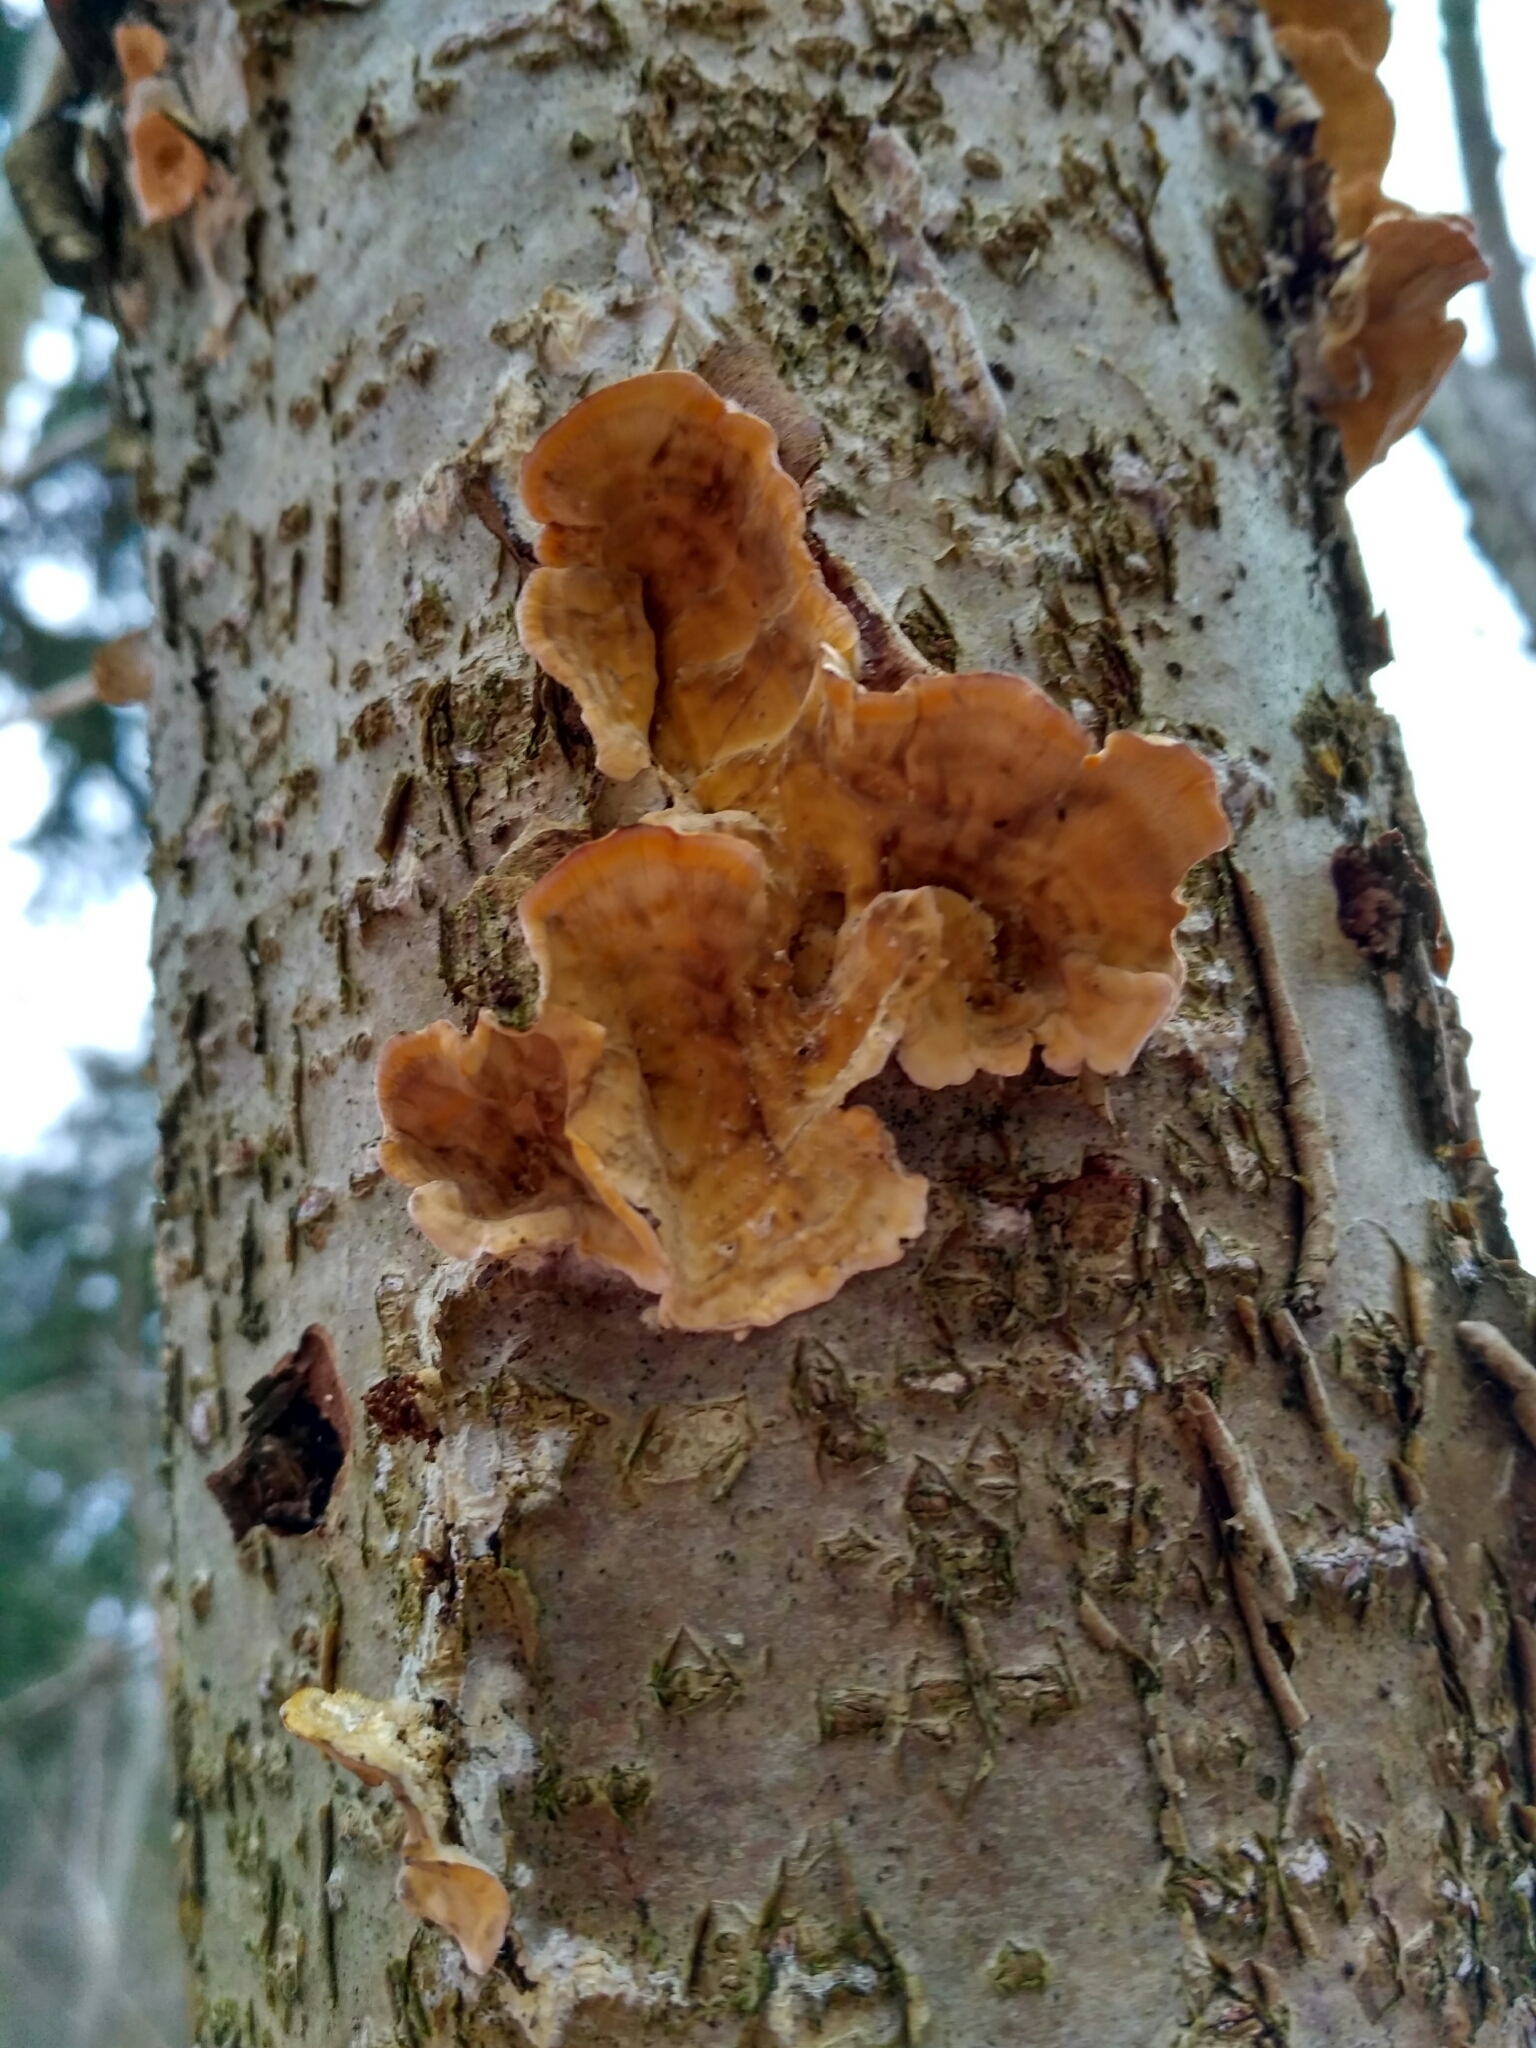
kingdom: Fungi
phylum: Basidiomycota
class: Agaricomycetes
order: Russulales
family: Stereaceae
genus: Stereum
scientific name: Stereum hirsutum
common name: Hairy curtain crust
